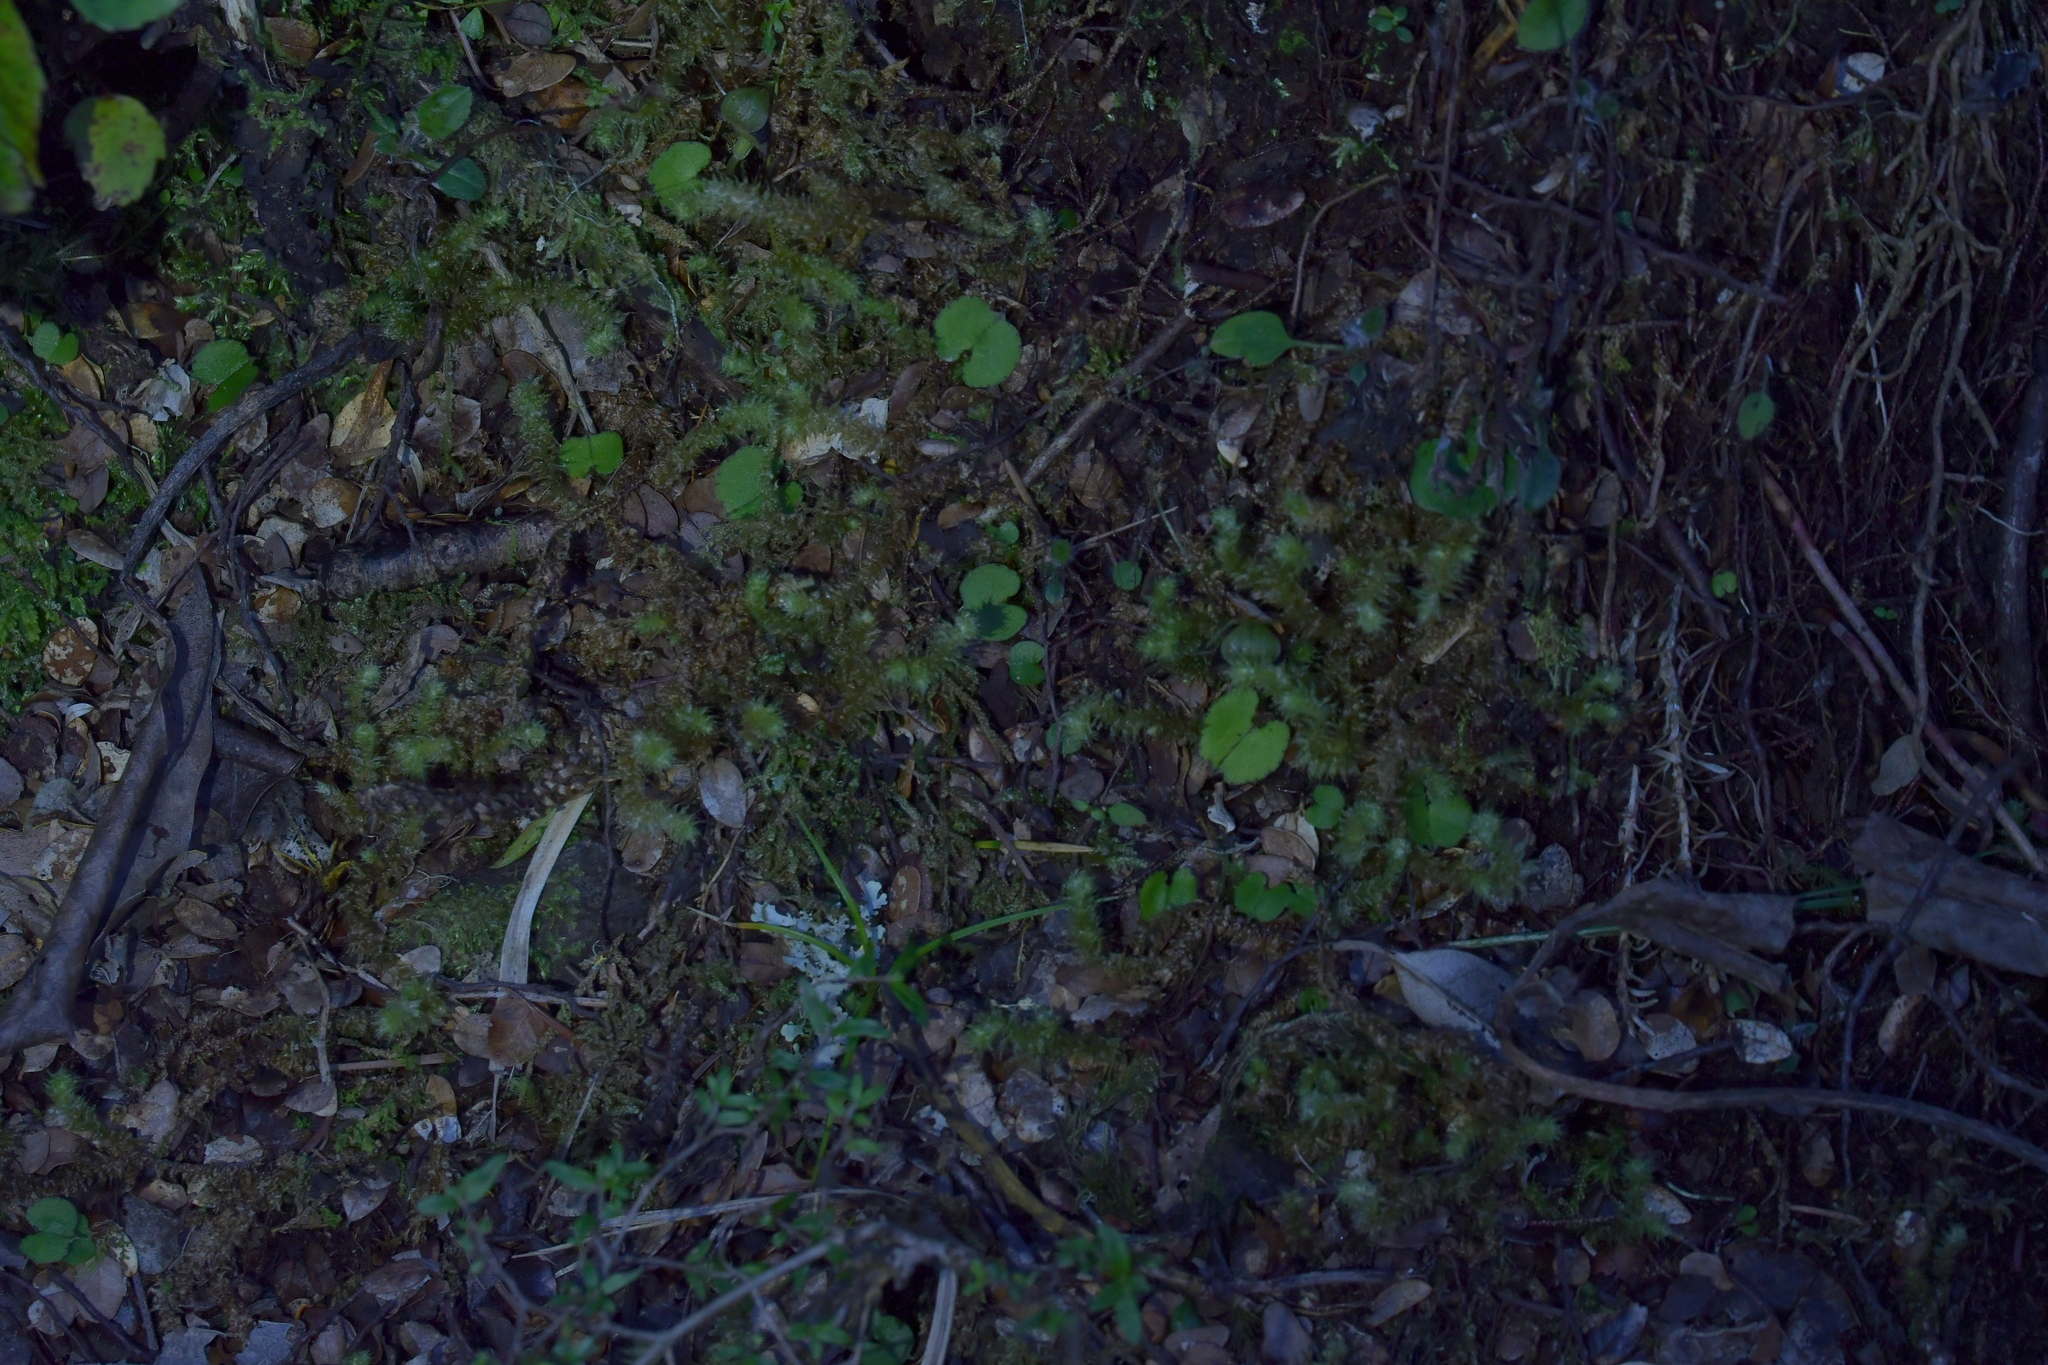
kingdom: Plantae
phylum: Tracheophyta
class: Liliopsida
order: Asparagales
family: Orchidaceae
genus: Corybas
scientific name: Corybas trilobus
